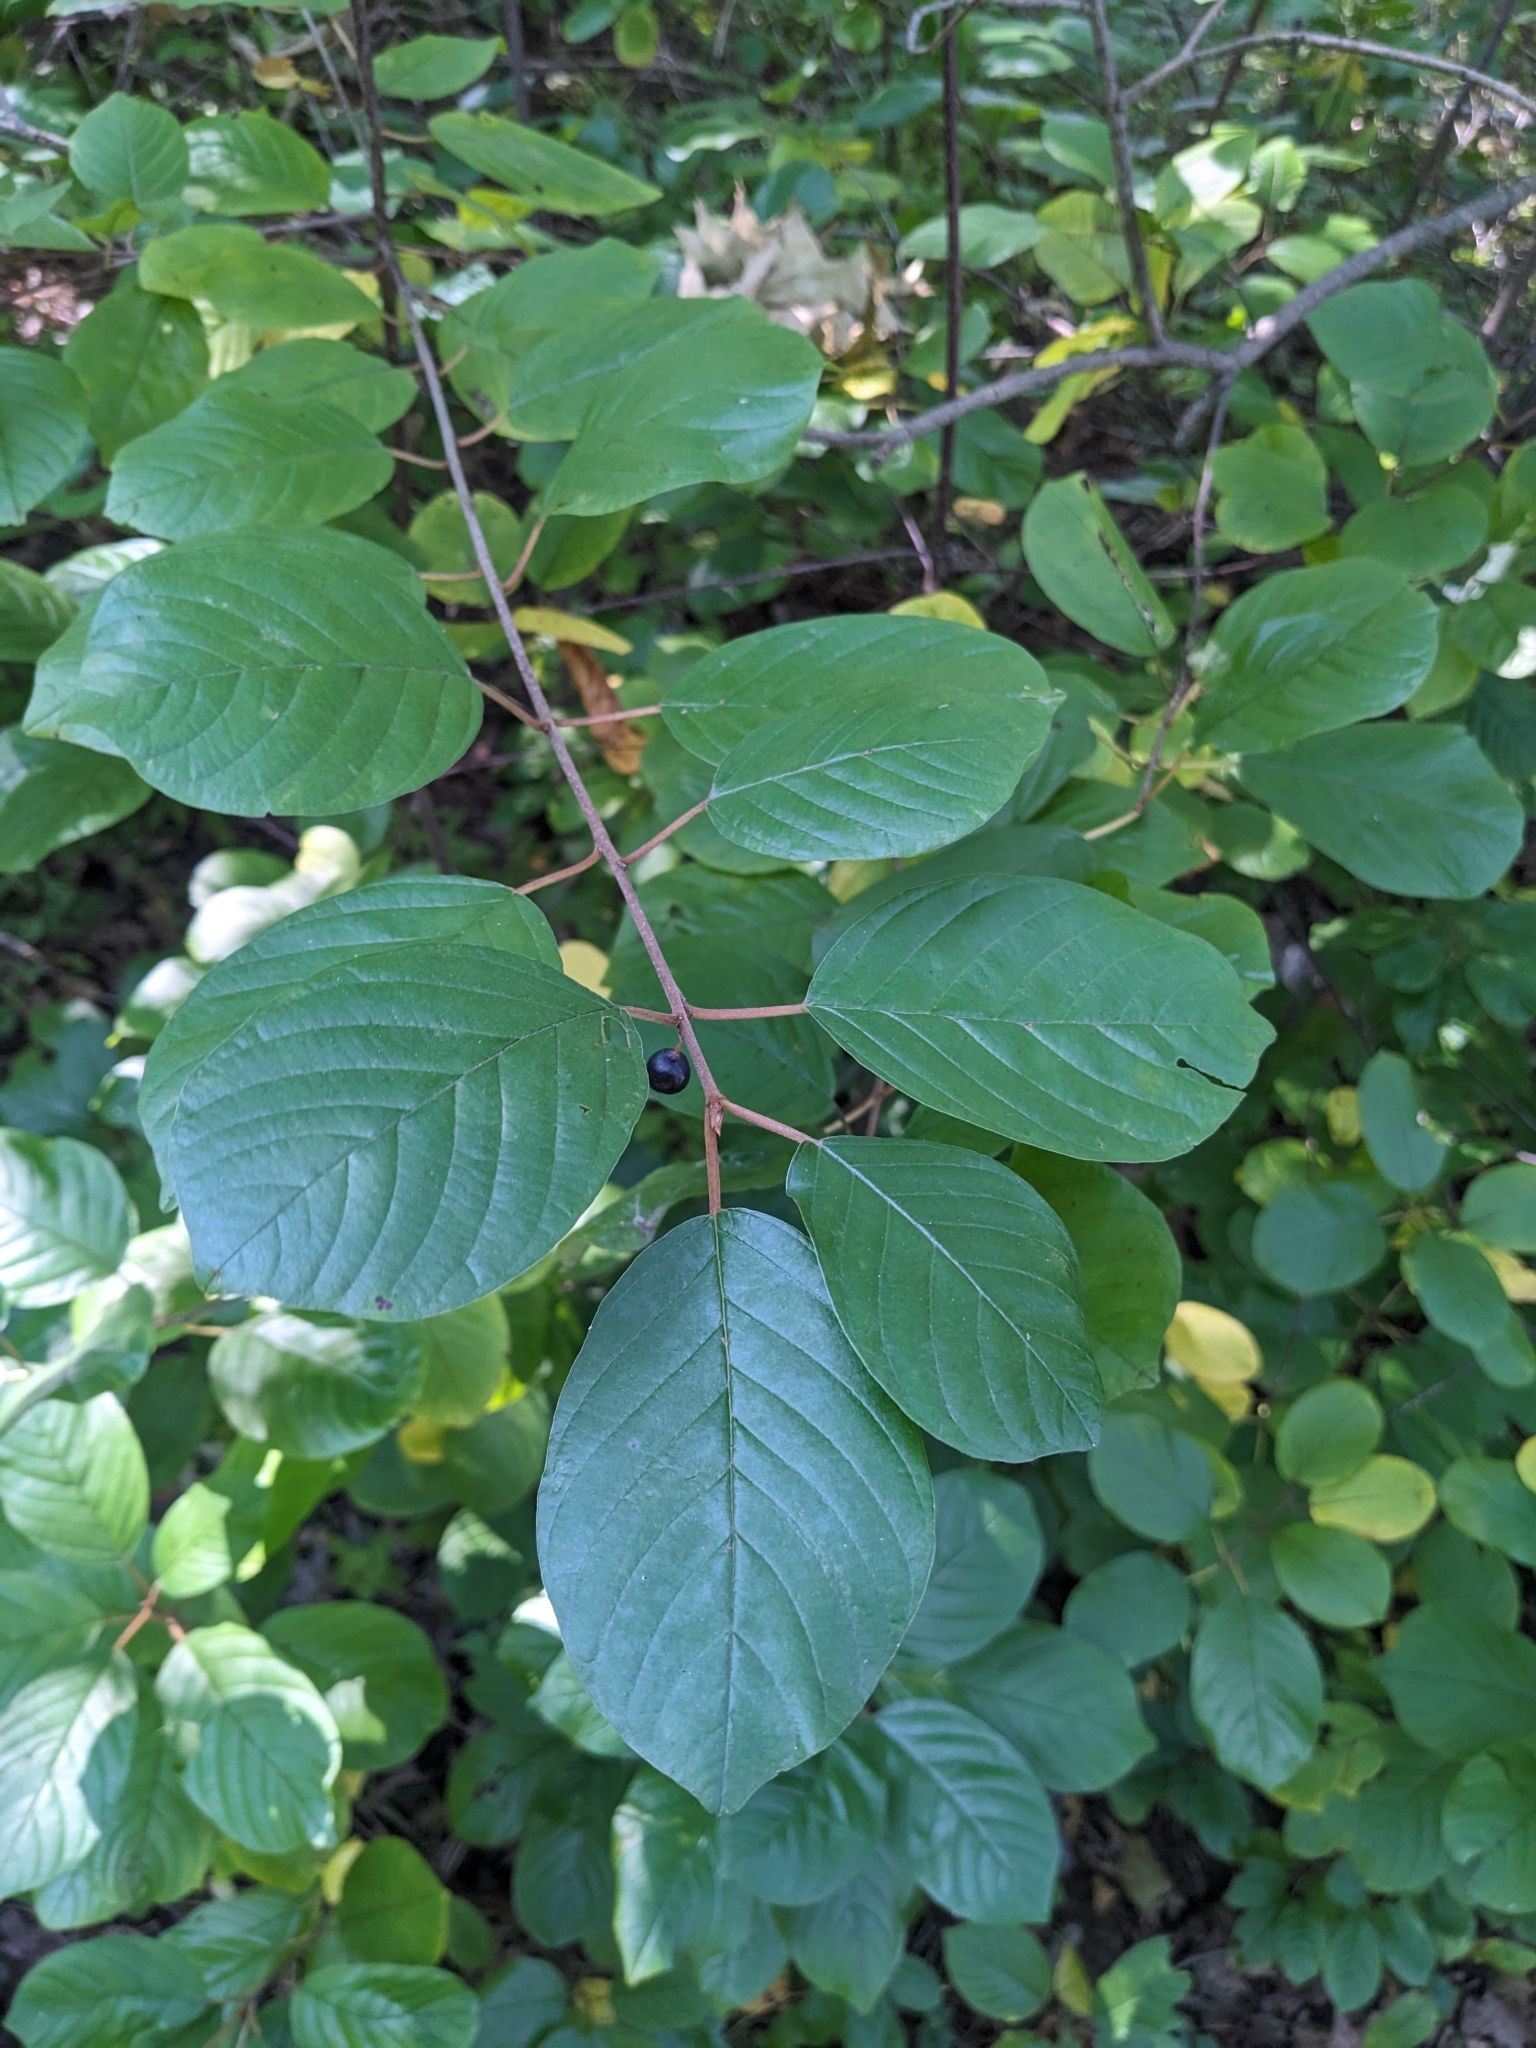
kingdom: Plantae
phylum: Tracheophyta
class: Magnoliopsida
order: Rosales
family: Rhamnaceae
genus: Frangula
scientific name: Frangula alnus
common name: Alder buckthorn
